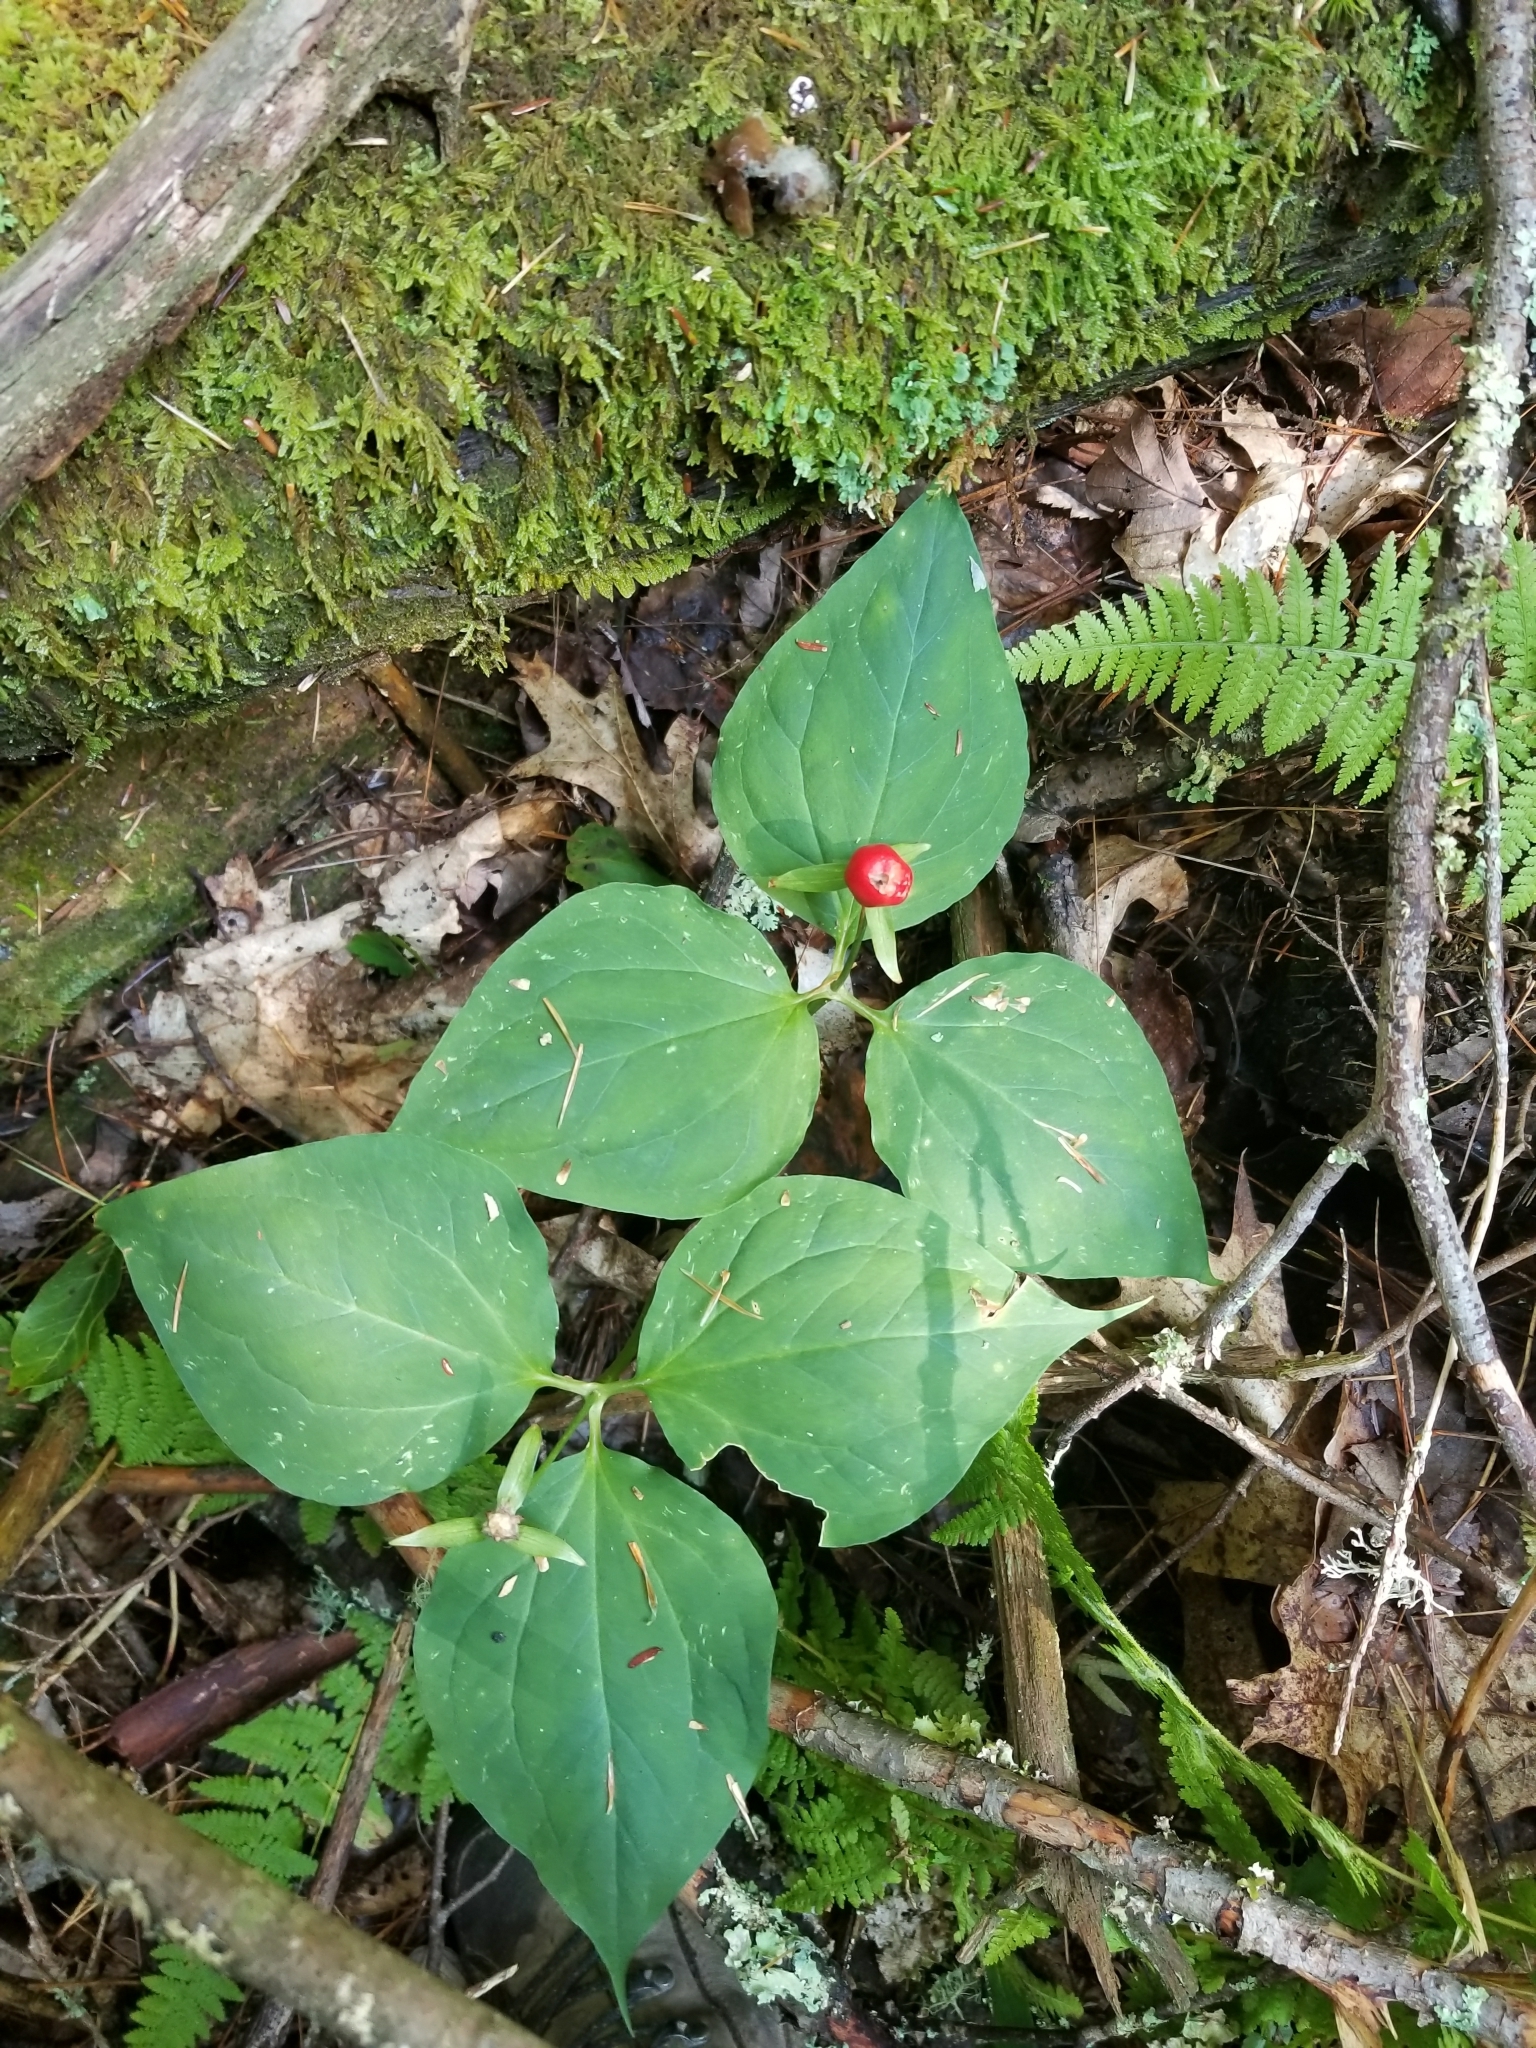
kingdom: Plantae
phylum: Tracheophyta
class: Liliopsida
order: Liliales
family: Melanthiaceae
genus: Trillium
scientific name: Trillium undulatum
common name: Paint trillium
